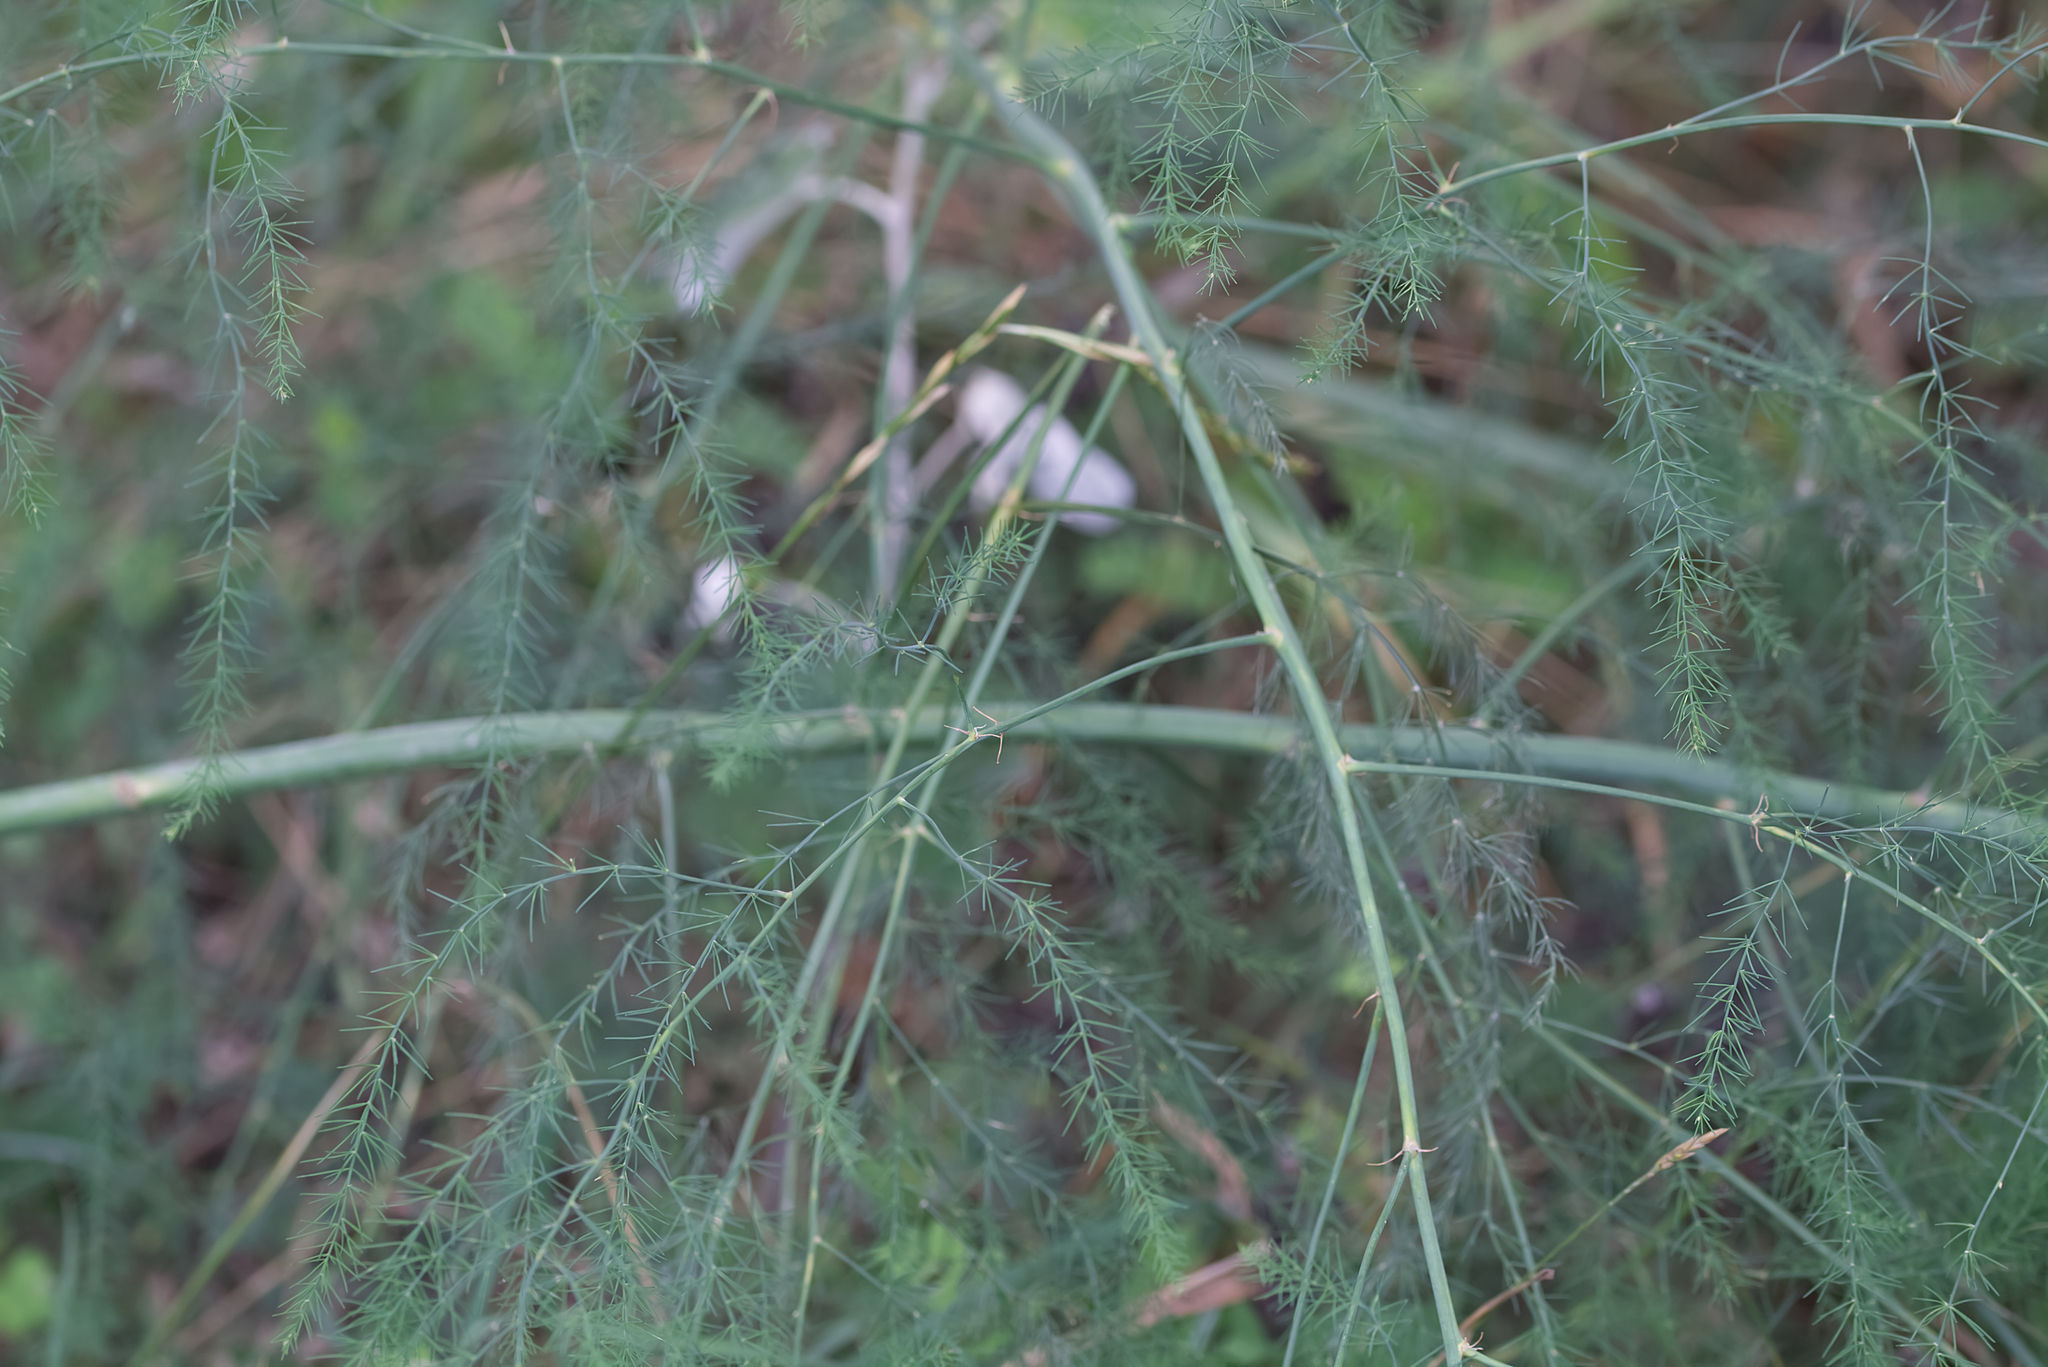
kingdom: Plantae
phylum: Tracheophyta
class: Liliopsida
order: Asparagales
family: Asparagaceae
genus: Asparagus
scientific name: Asparagus officinalis
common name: Garden asparagus
